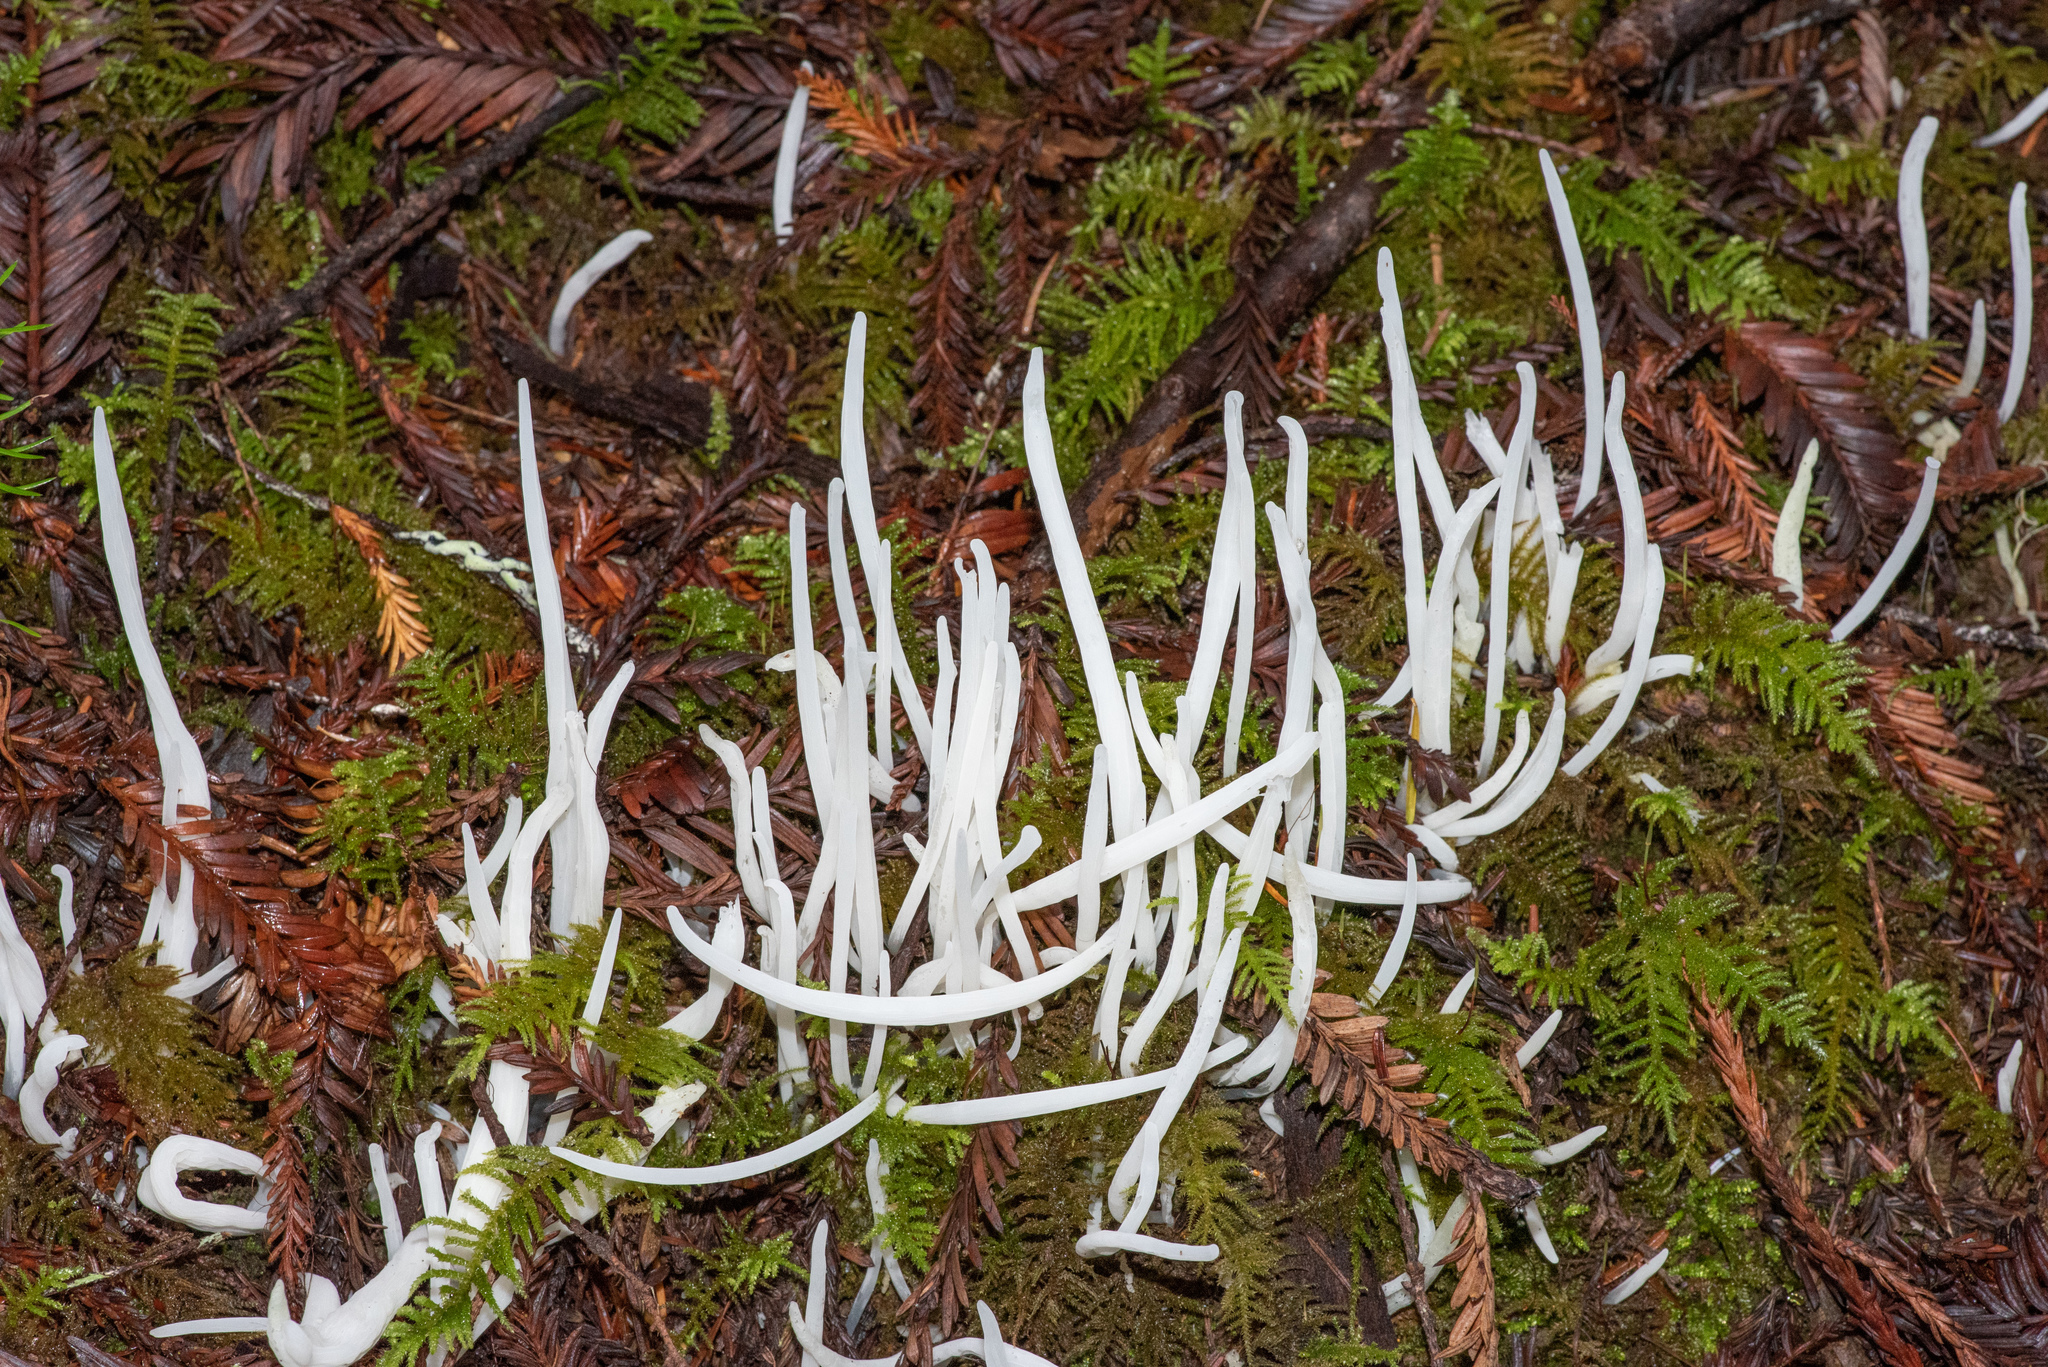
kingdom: Fungi
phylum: Basidiomycota
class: Agaricomycetes
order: Agaricales
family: Clavariaceae
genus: Clavaria
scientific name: Clavaria fragilis
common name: White spindles
